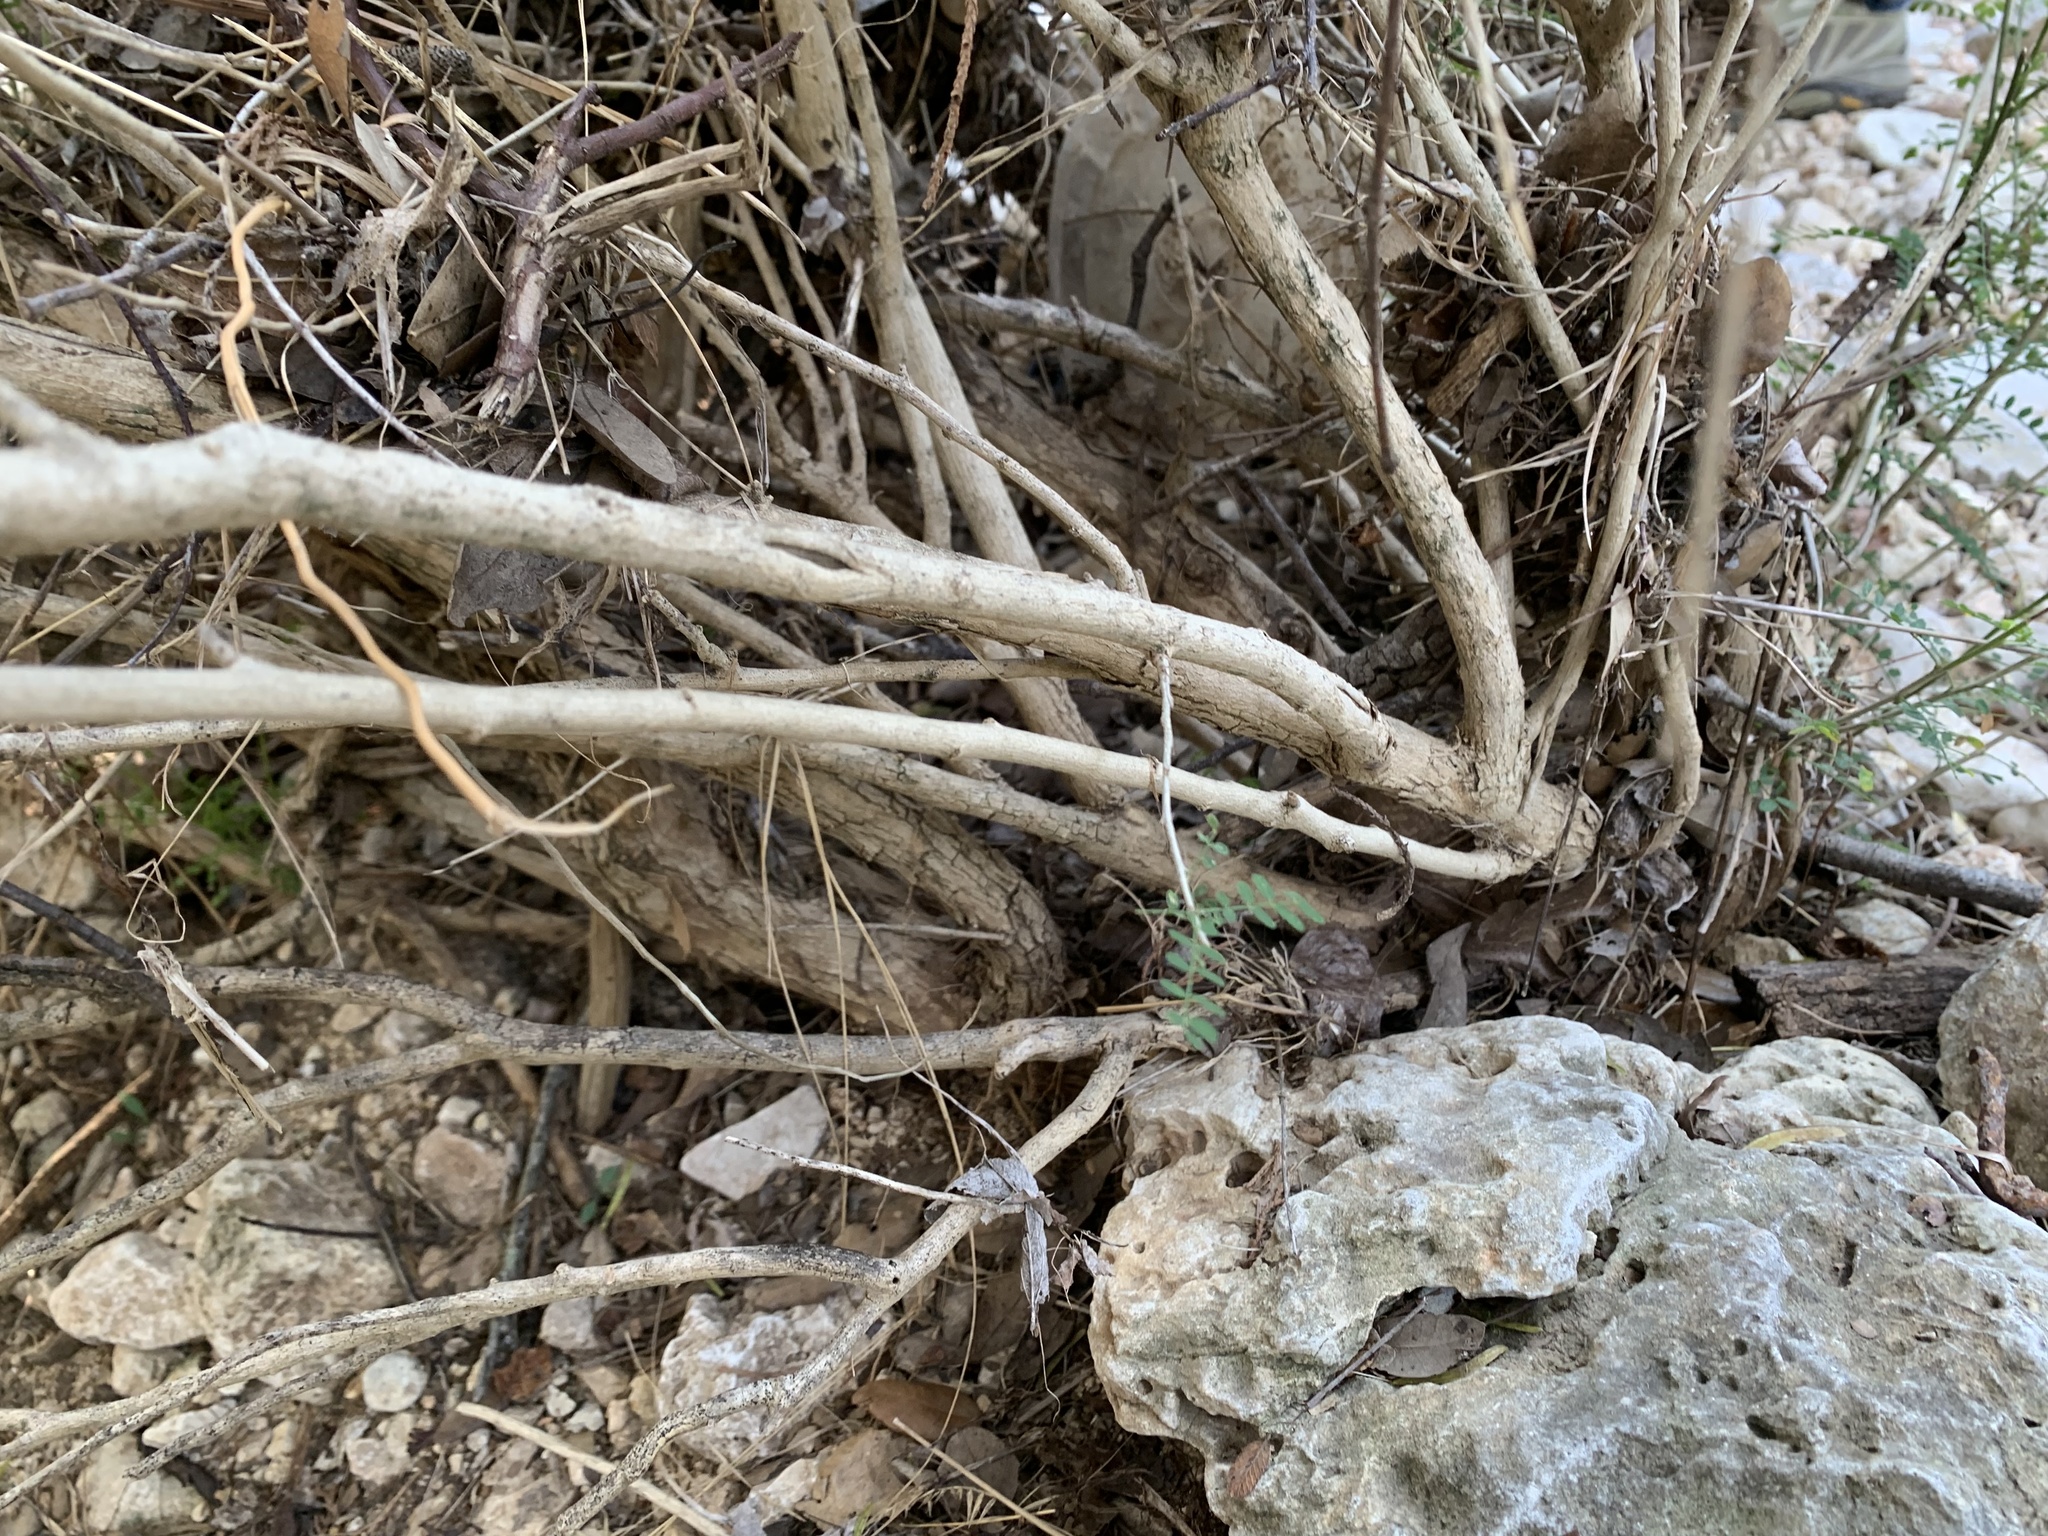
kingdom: Plantae
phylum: Tracheophyta
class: Magnoliopsida
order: Fabales
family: Fabaceae
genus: Eysenhardtia
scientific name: Eysenhardtia texana
